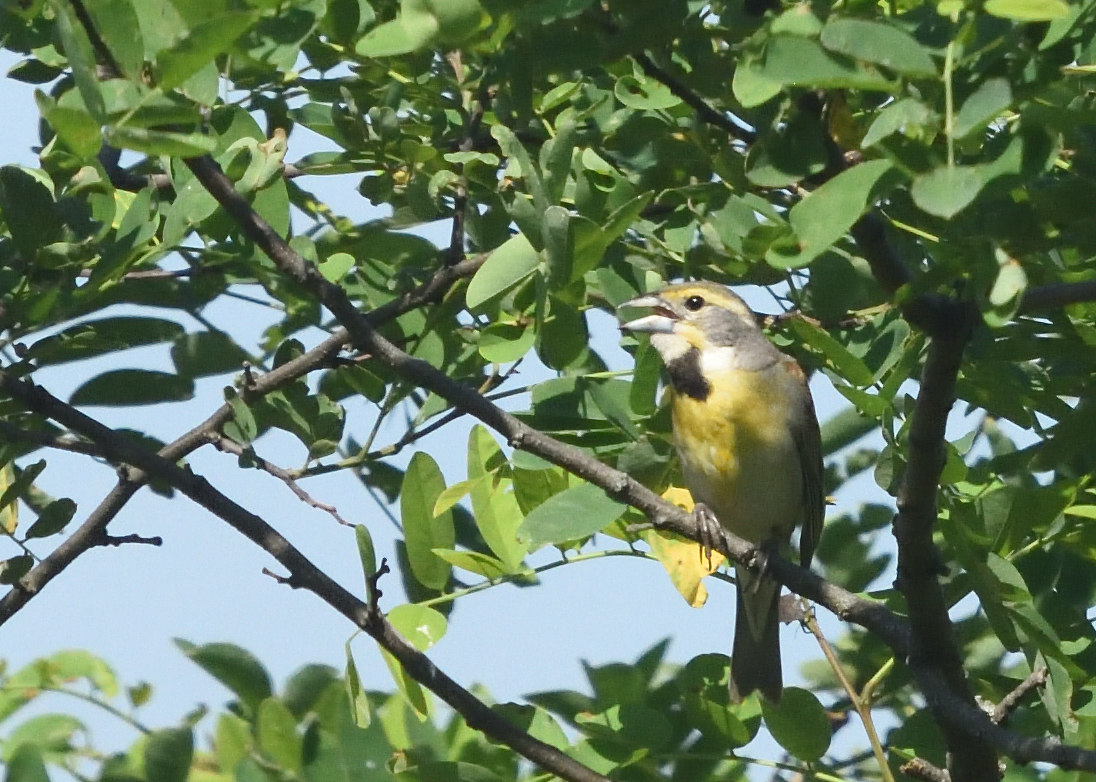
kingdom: Animalia
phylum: Chordata
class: Aves
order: Passeriformes
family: Cardinalidae
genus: Spiza
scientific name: Spiza americana
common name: Dickcissel
